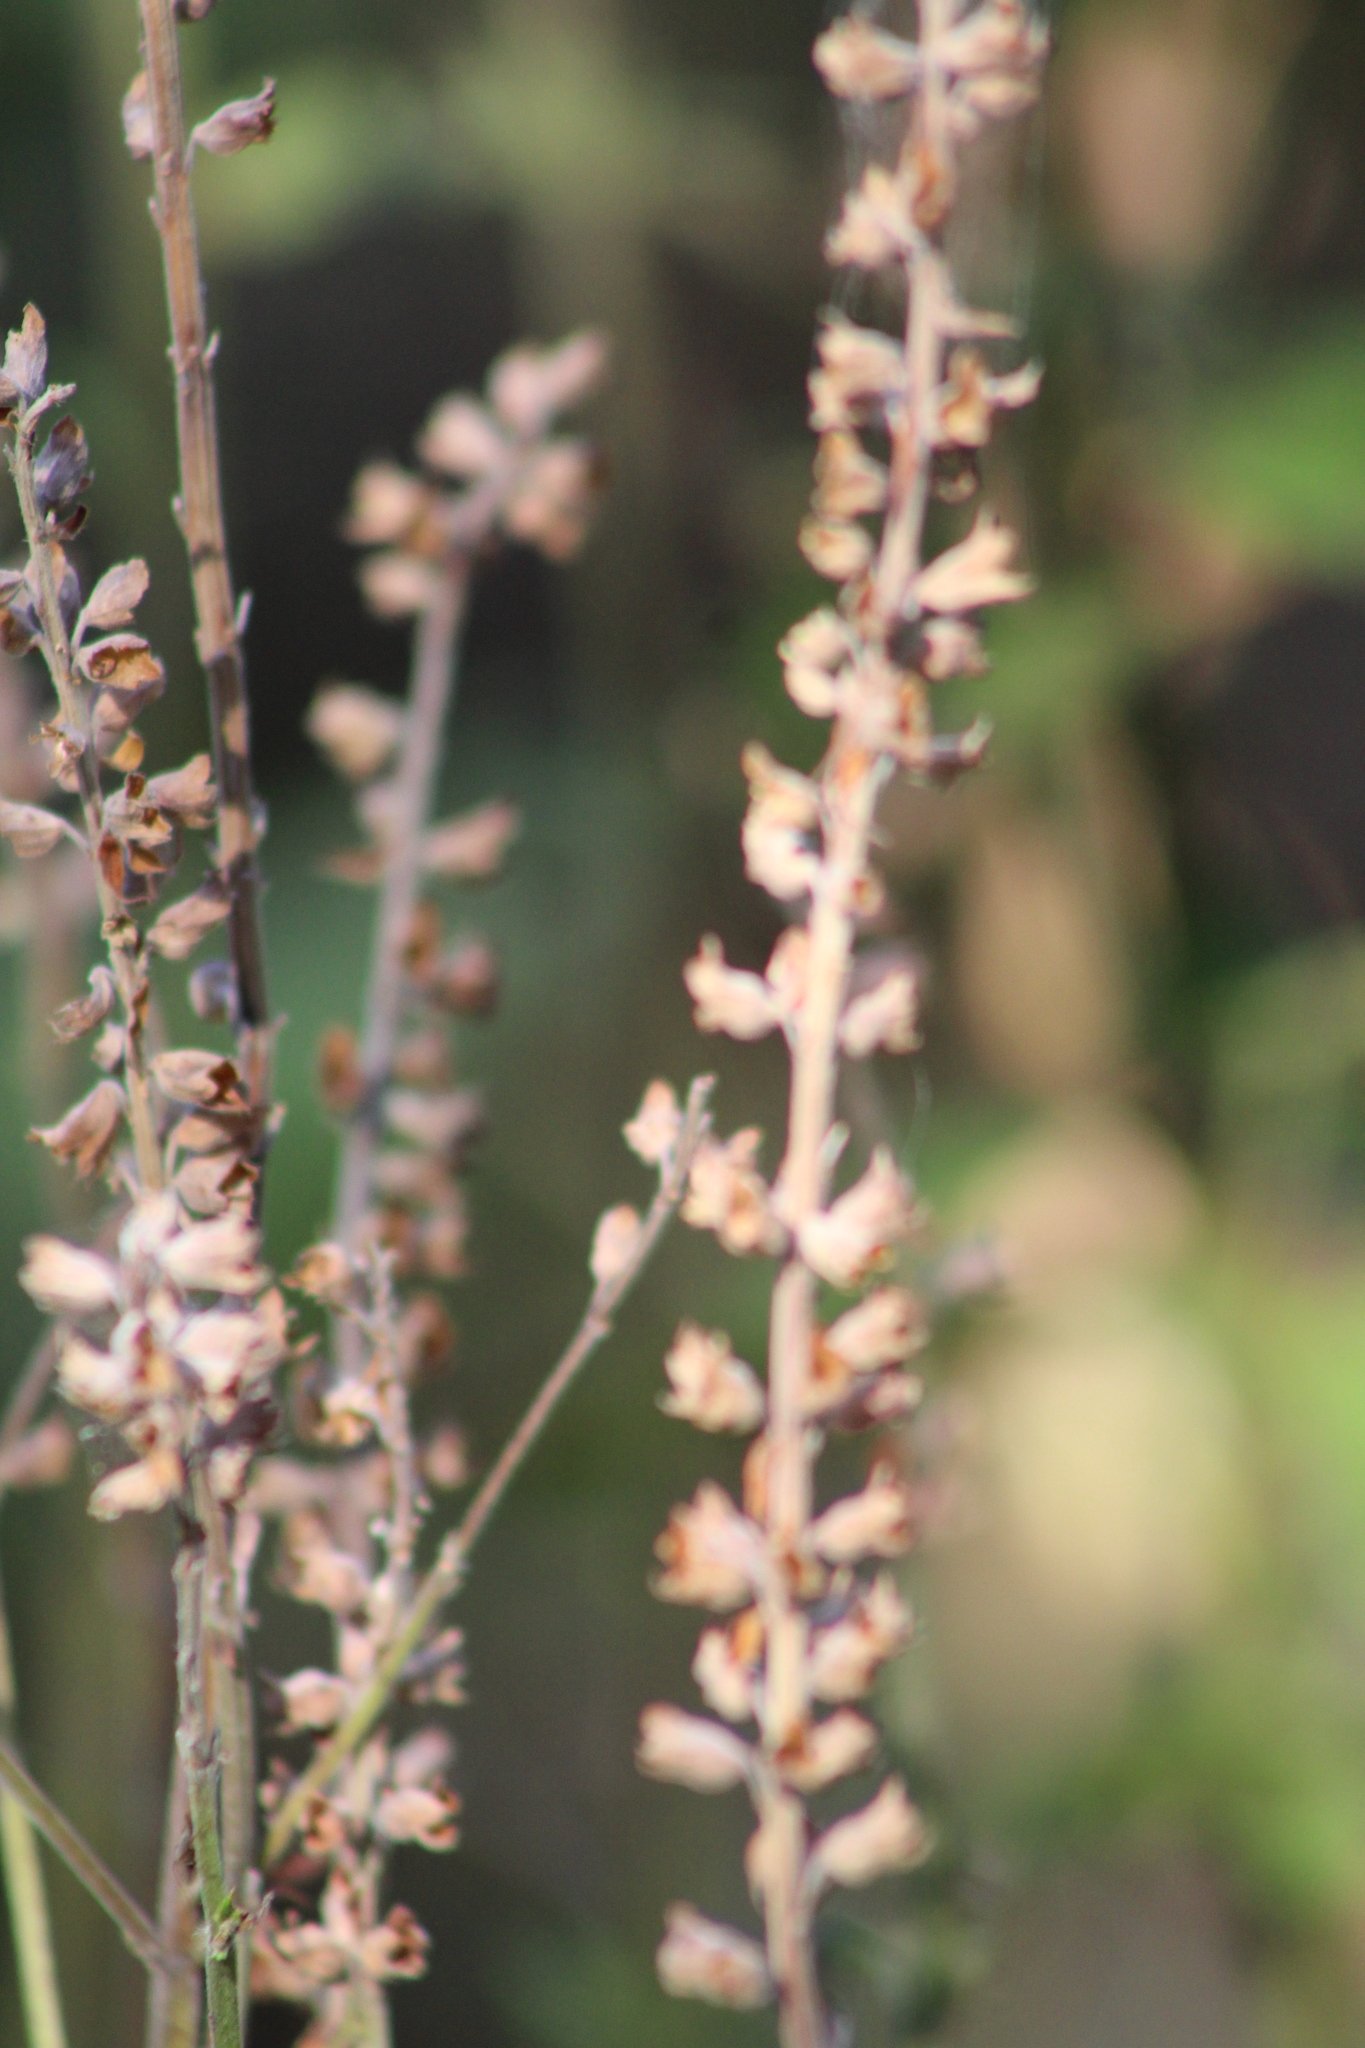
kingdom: Plantae
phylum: Tracheophyta
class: Magnoliopsida
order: Lamiales
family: Lamiaceae
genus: Teucrium
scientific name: Teucrium canadense
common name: American germander
